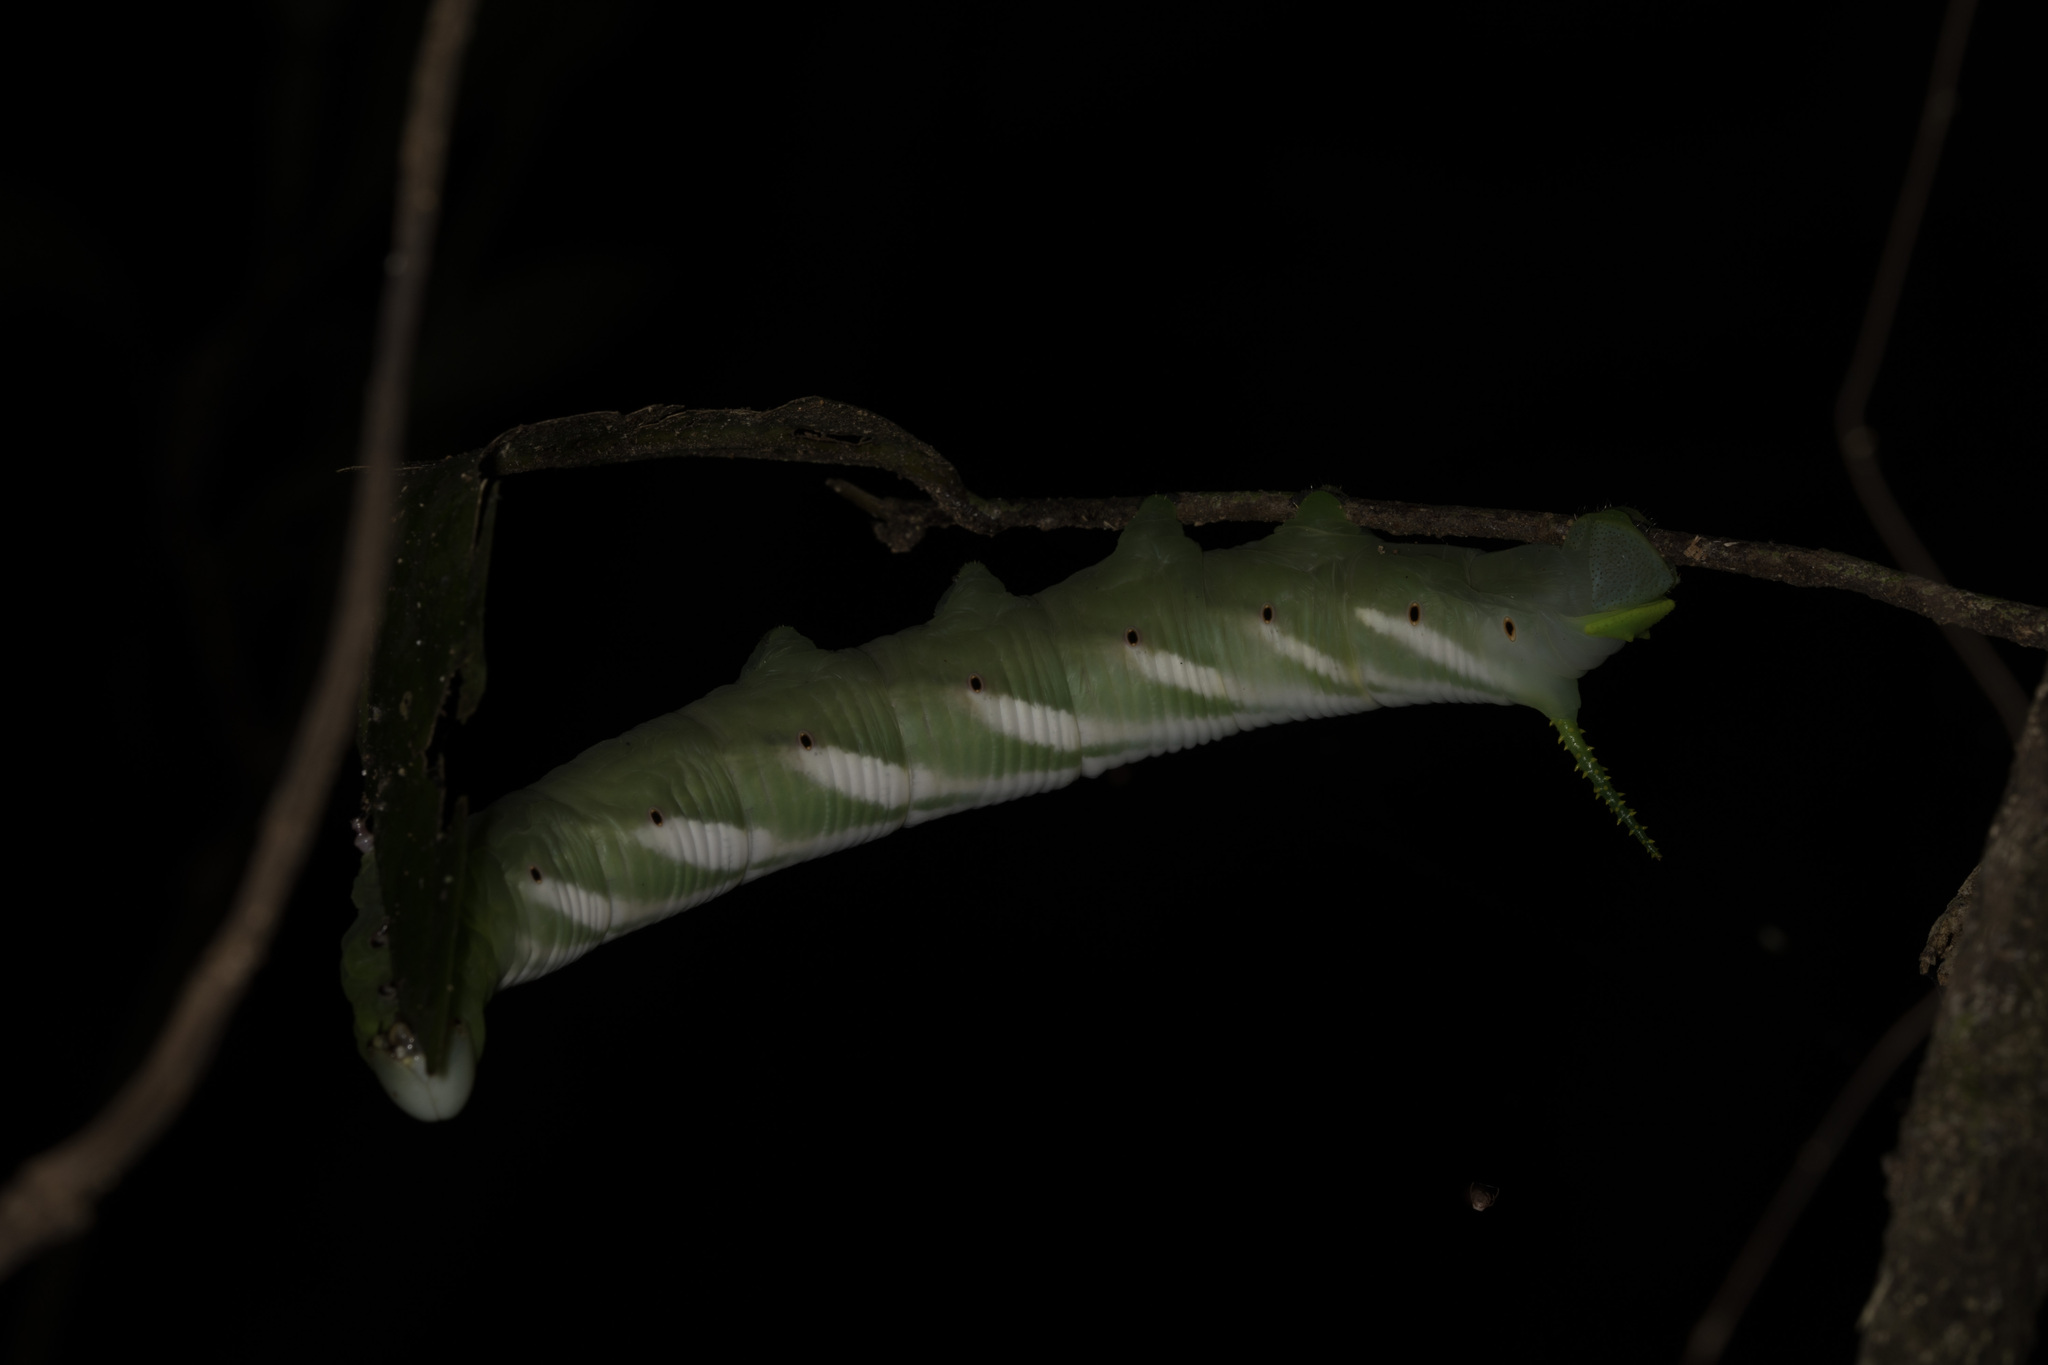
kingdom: Animalia
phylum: Arthropoda
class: Insecta
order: Lepidoptera
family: Sphingidae
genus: Neococytius
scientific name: Neococytius cluentius
